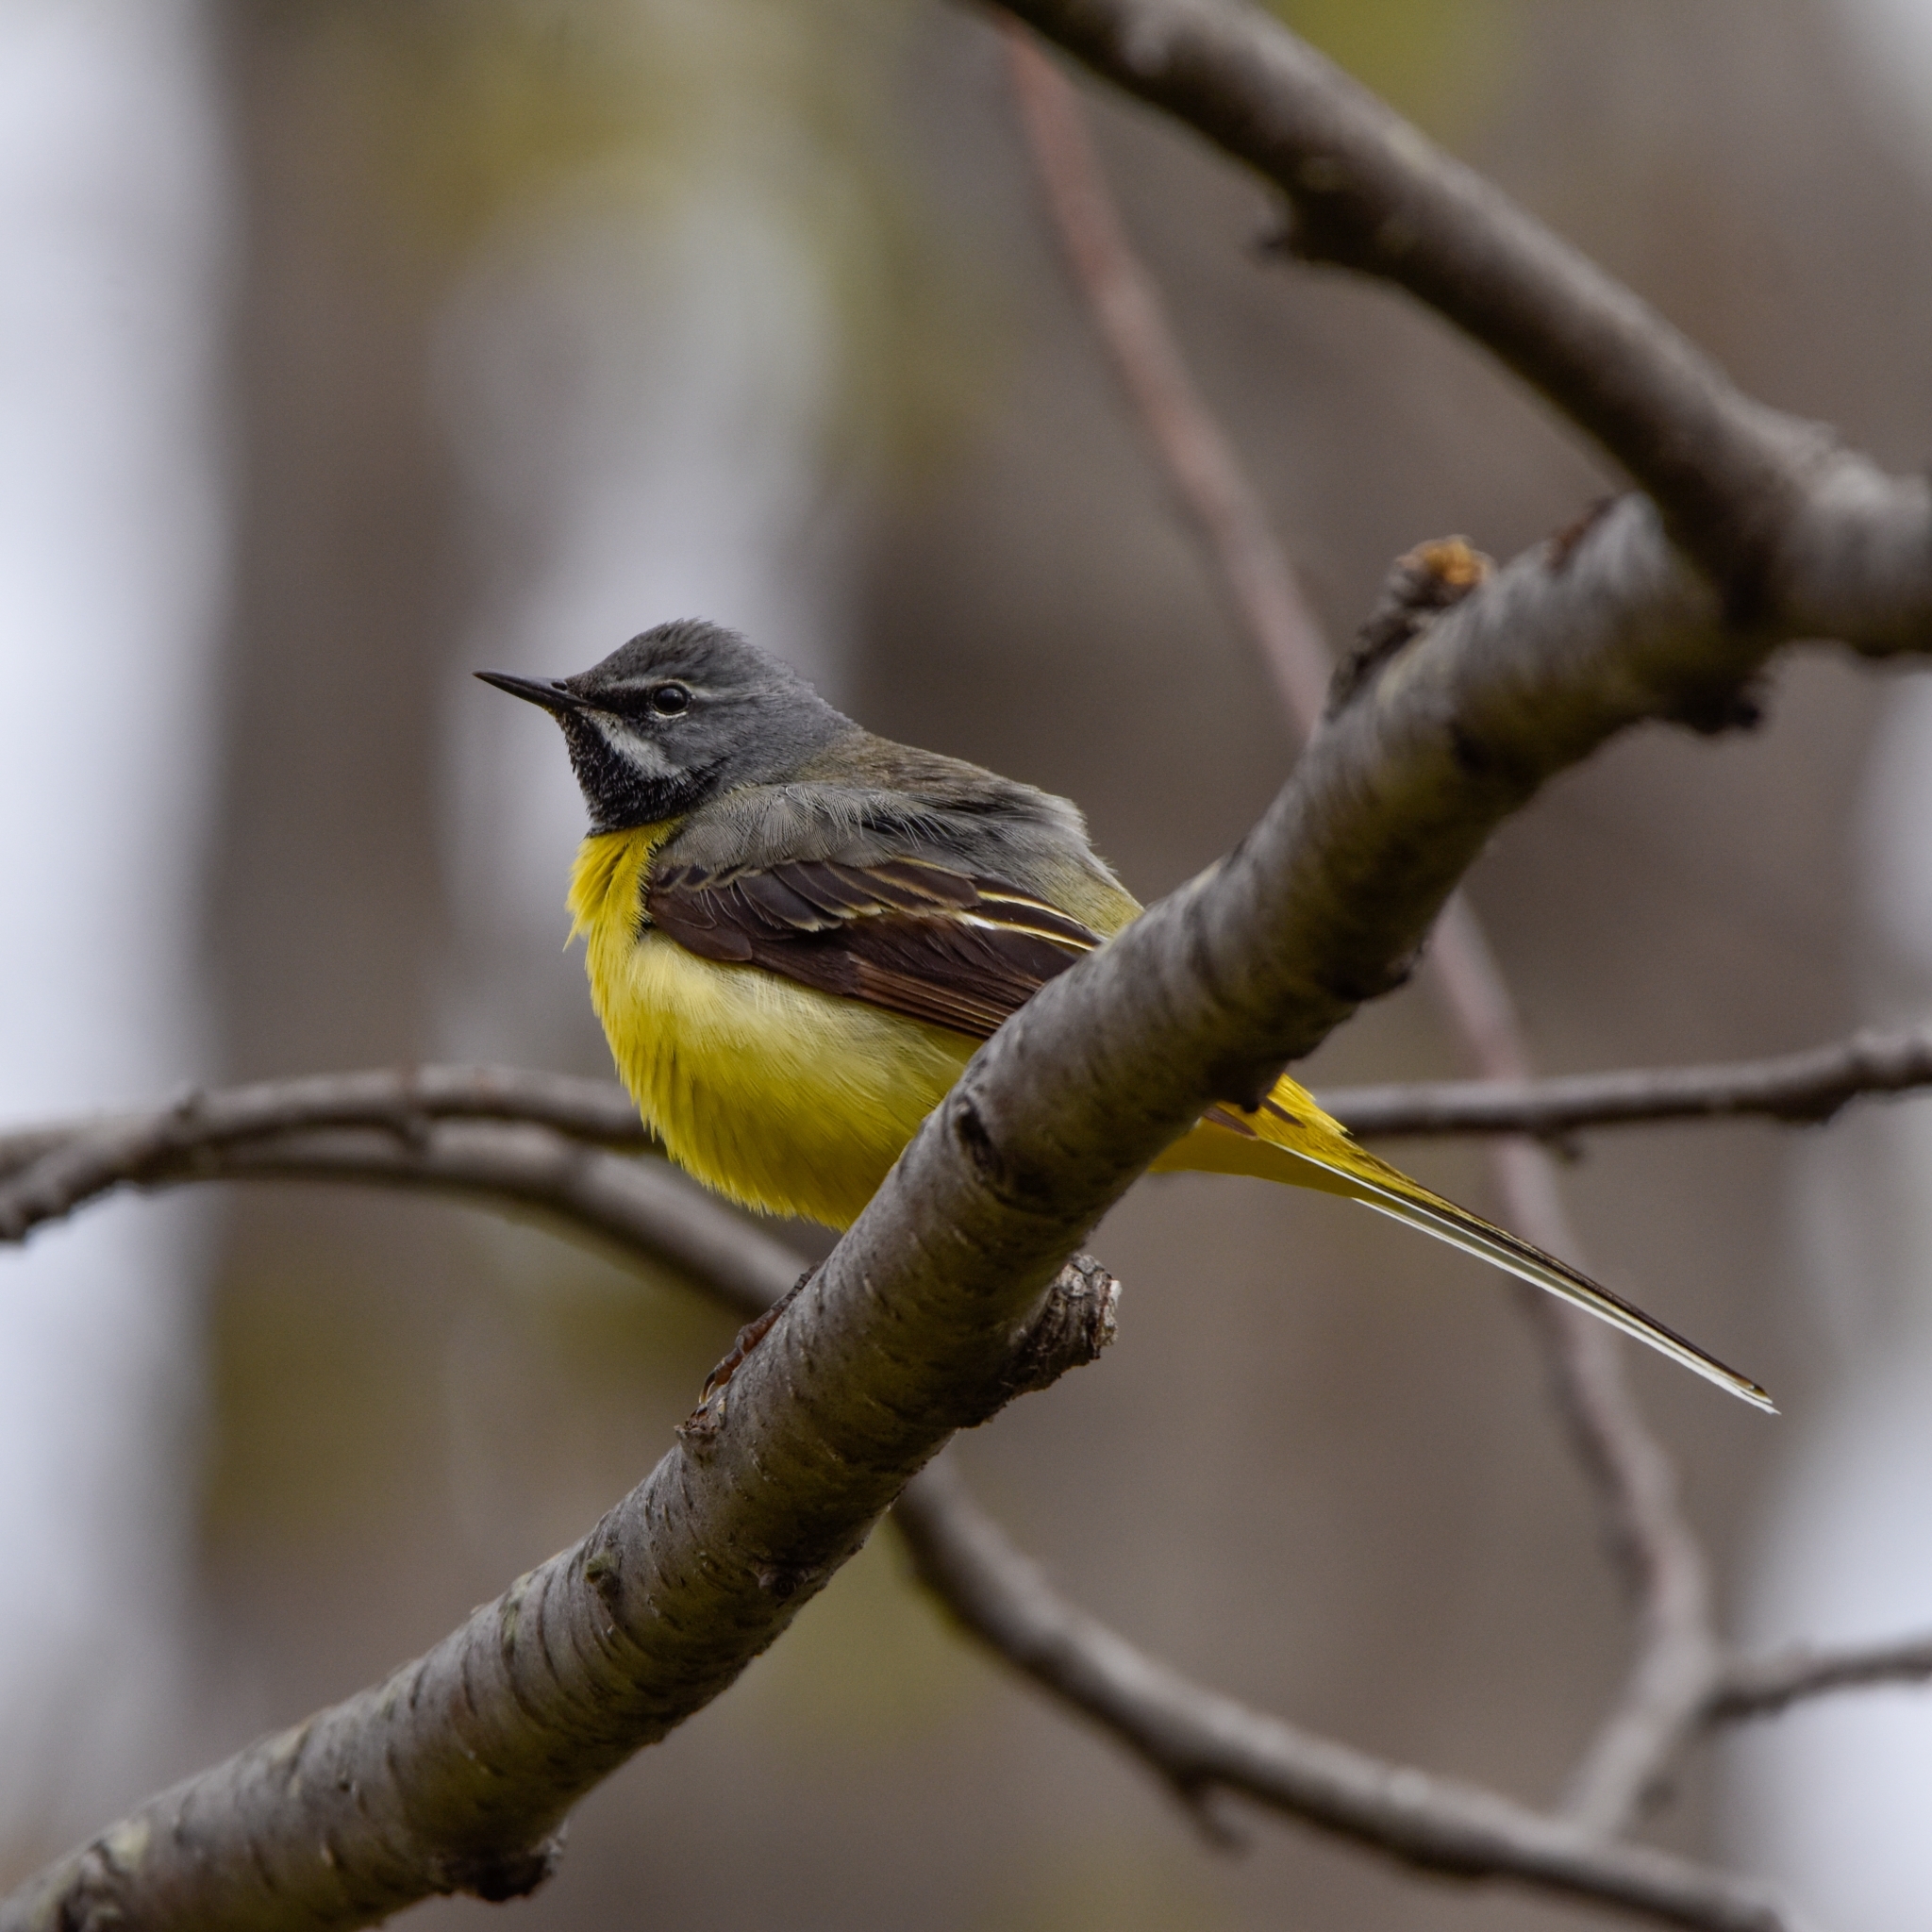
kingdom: Animalia
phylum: Chordata
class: Aves
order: Passeriformes
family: Motacillidae
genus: Motacilla
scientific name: Motacilla cinerea
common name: Grey wagtail
